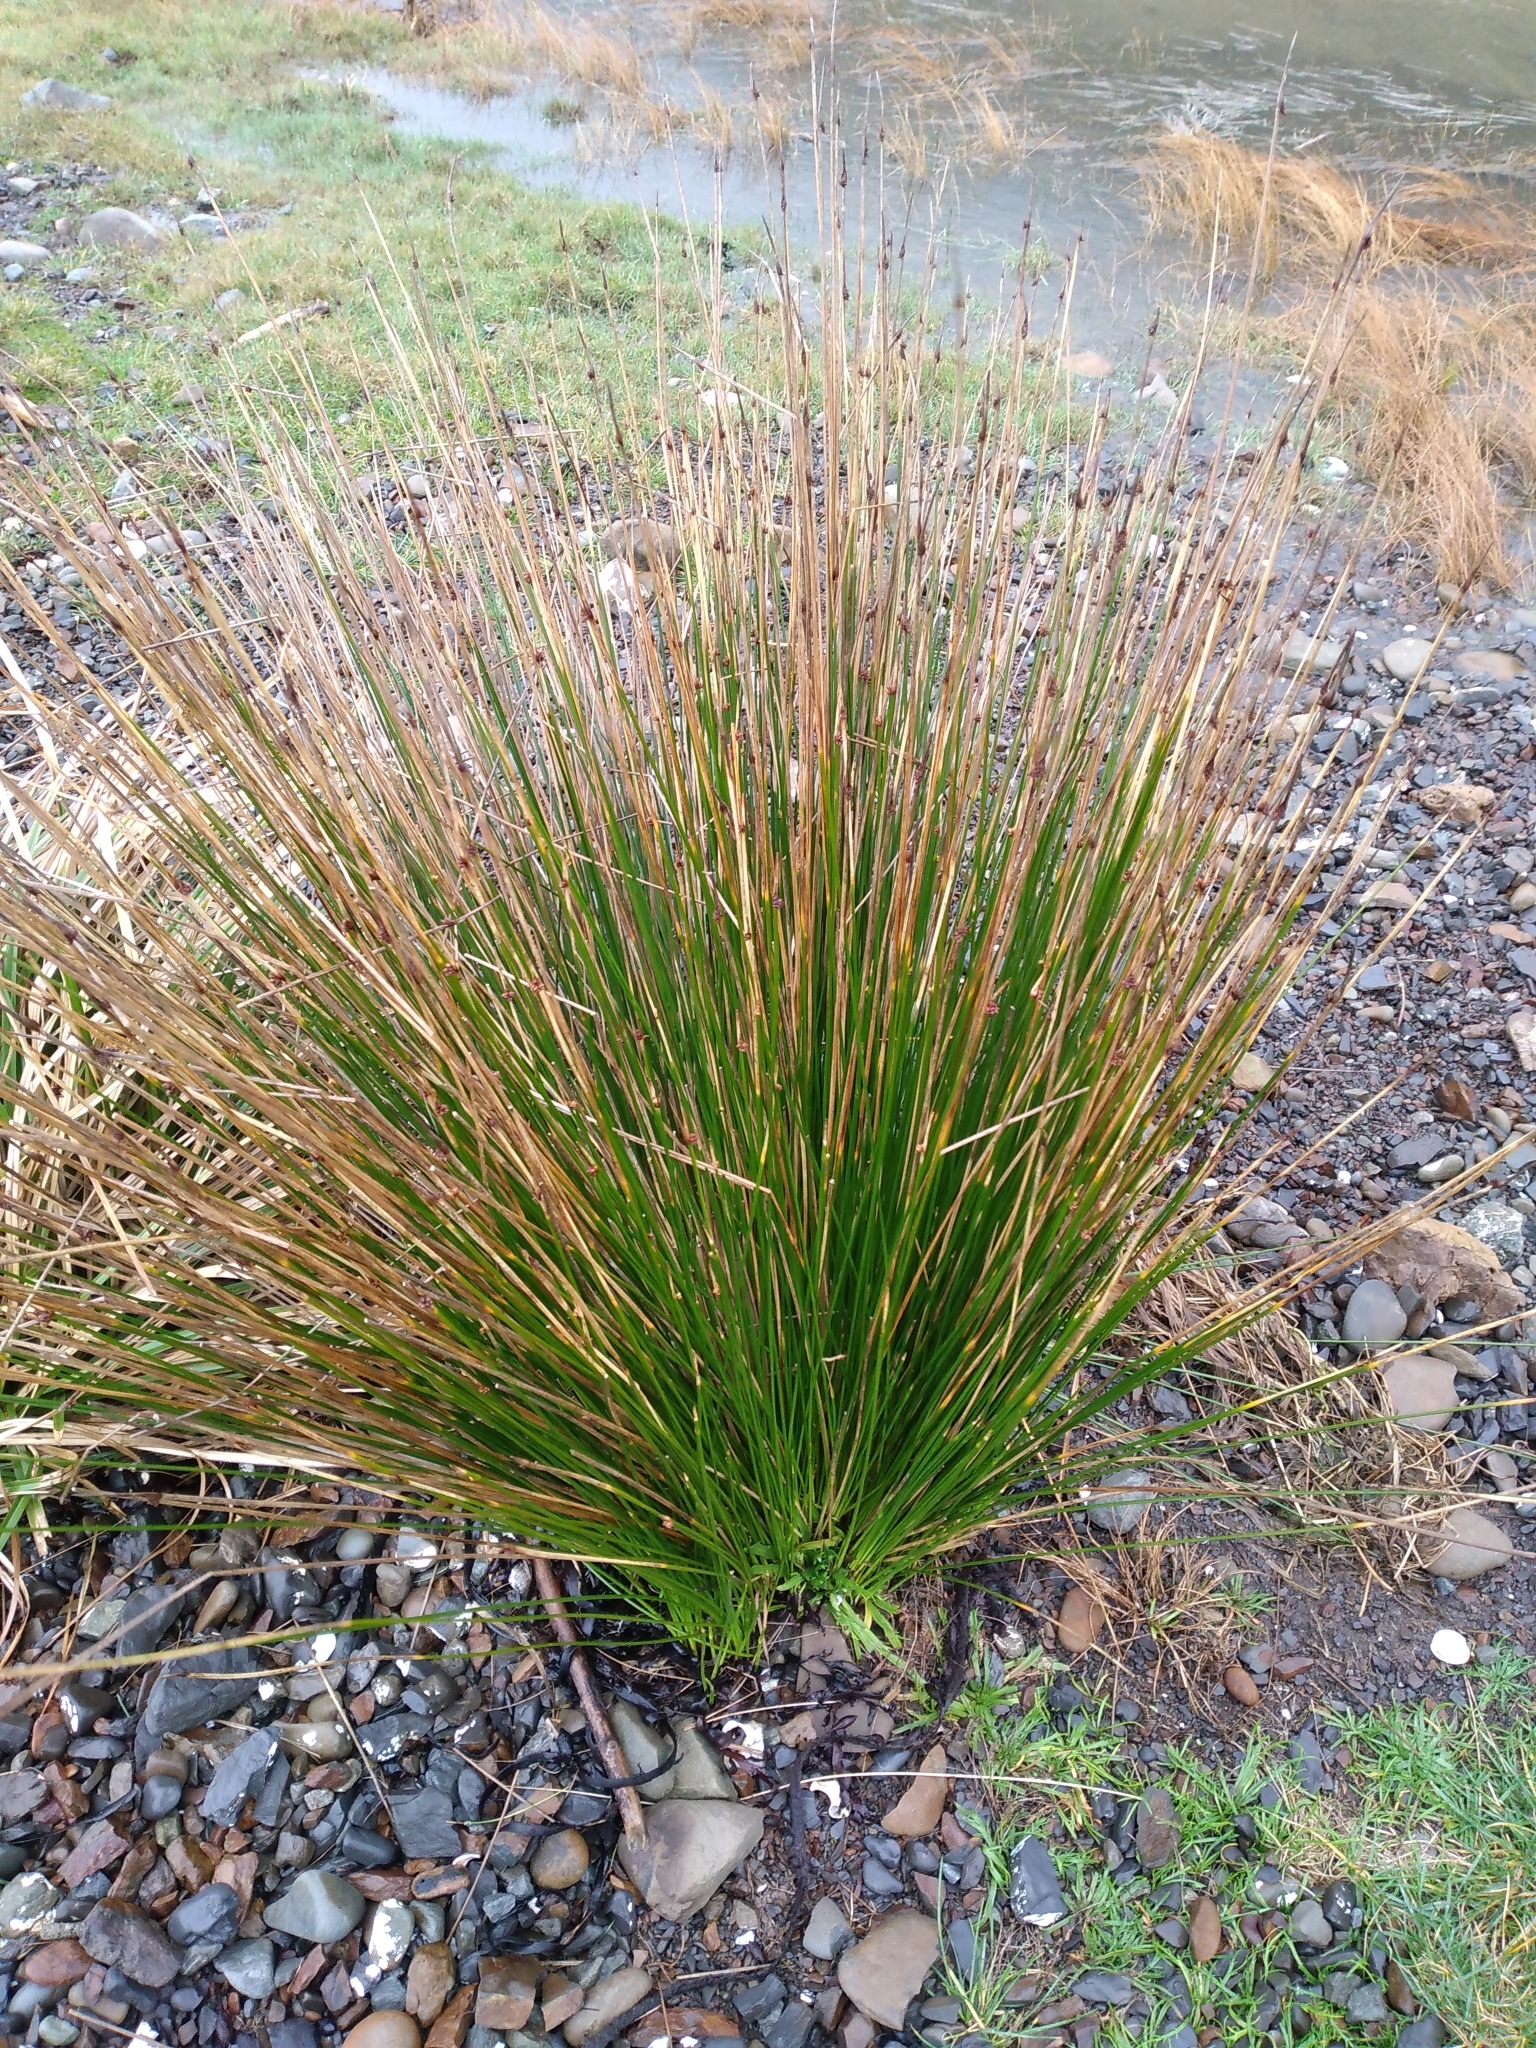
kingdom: Plantae
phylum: Tracheophyta
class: Liliopsida
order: Poales
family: Cyperaceae
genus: Ficinia
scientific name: Ficinia nodosa
